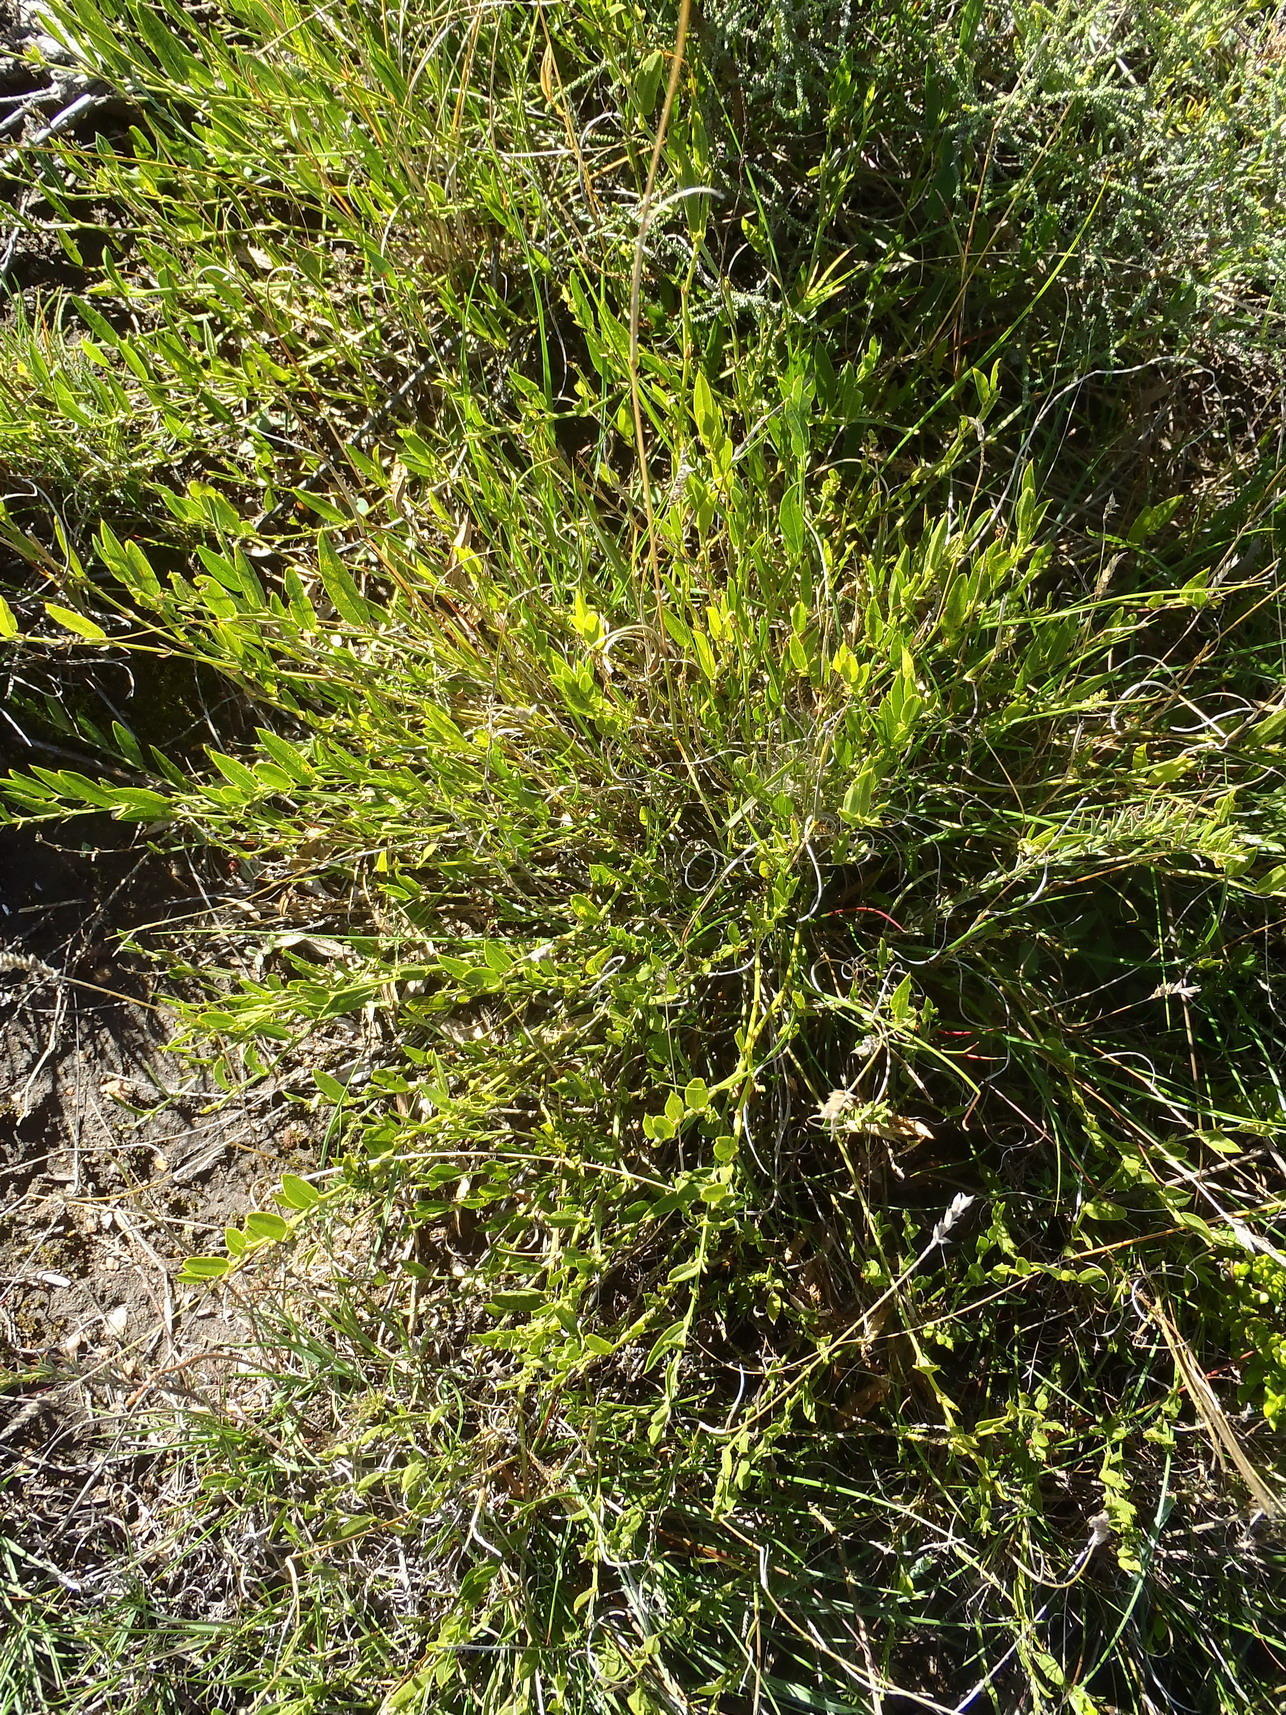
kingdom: Plantae
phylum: Tracheophyta
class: Magnoliopsida
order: Fabales
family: Fabaceae
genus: Psoralea
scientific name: Psoralea plauta
